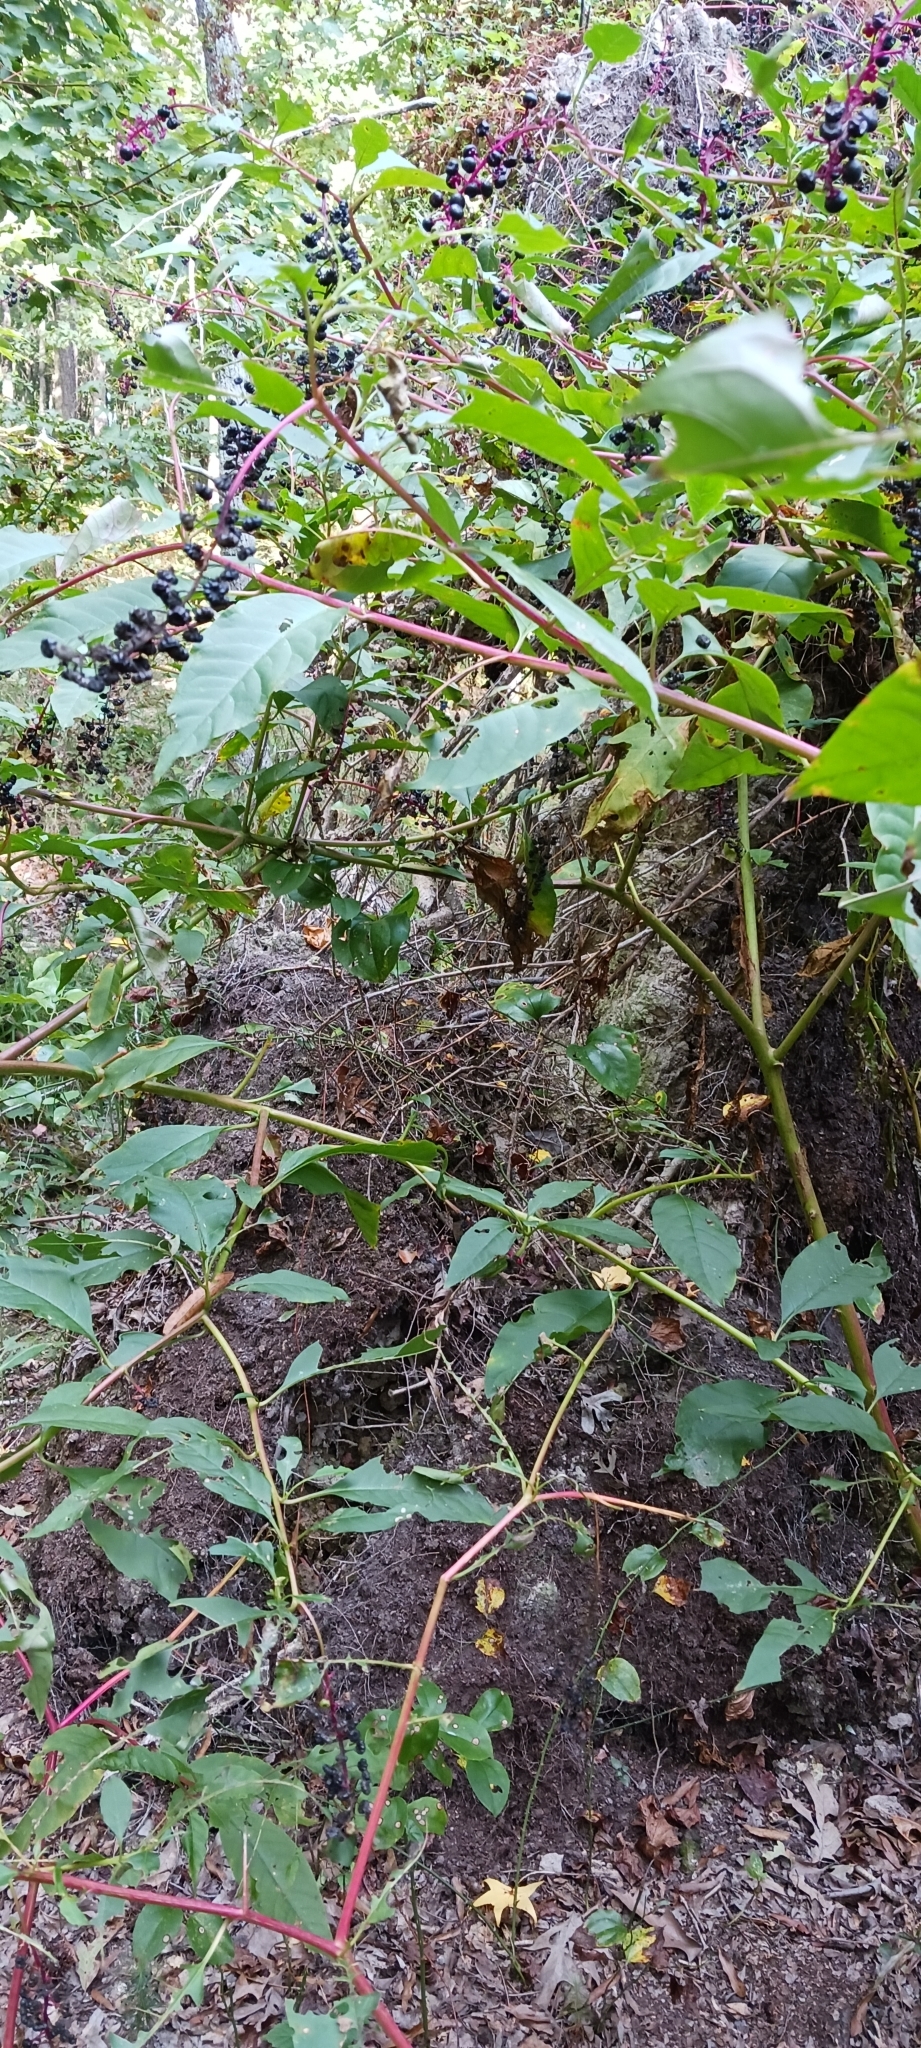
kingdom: Plantae
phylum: Tracheophyta
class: Magnoliopsida
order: Caryophyllales
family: Phytolaccaceae
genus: Phytolacca
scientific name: Phytolacca americana
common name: American pokeweed
